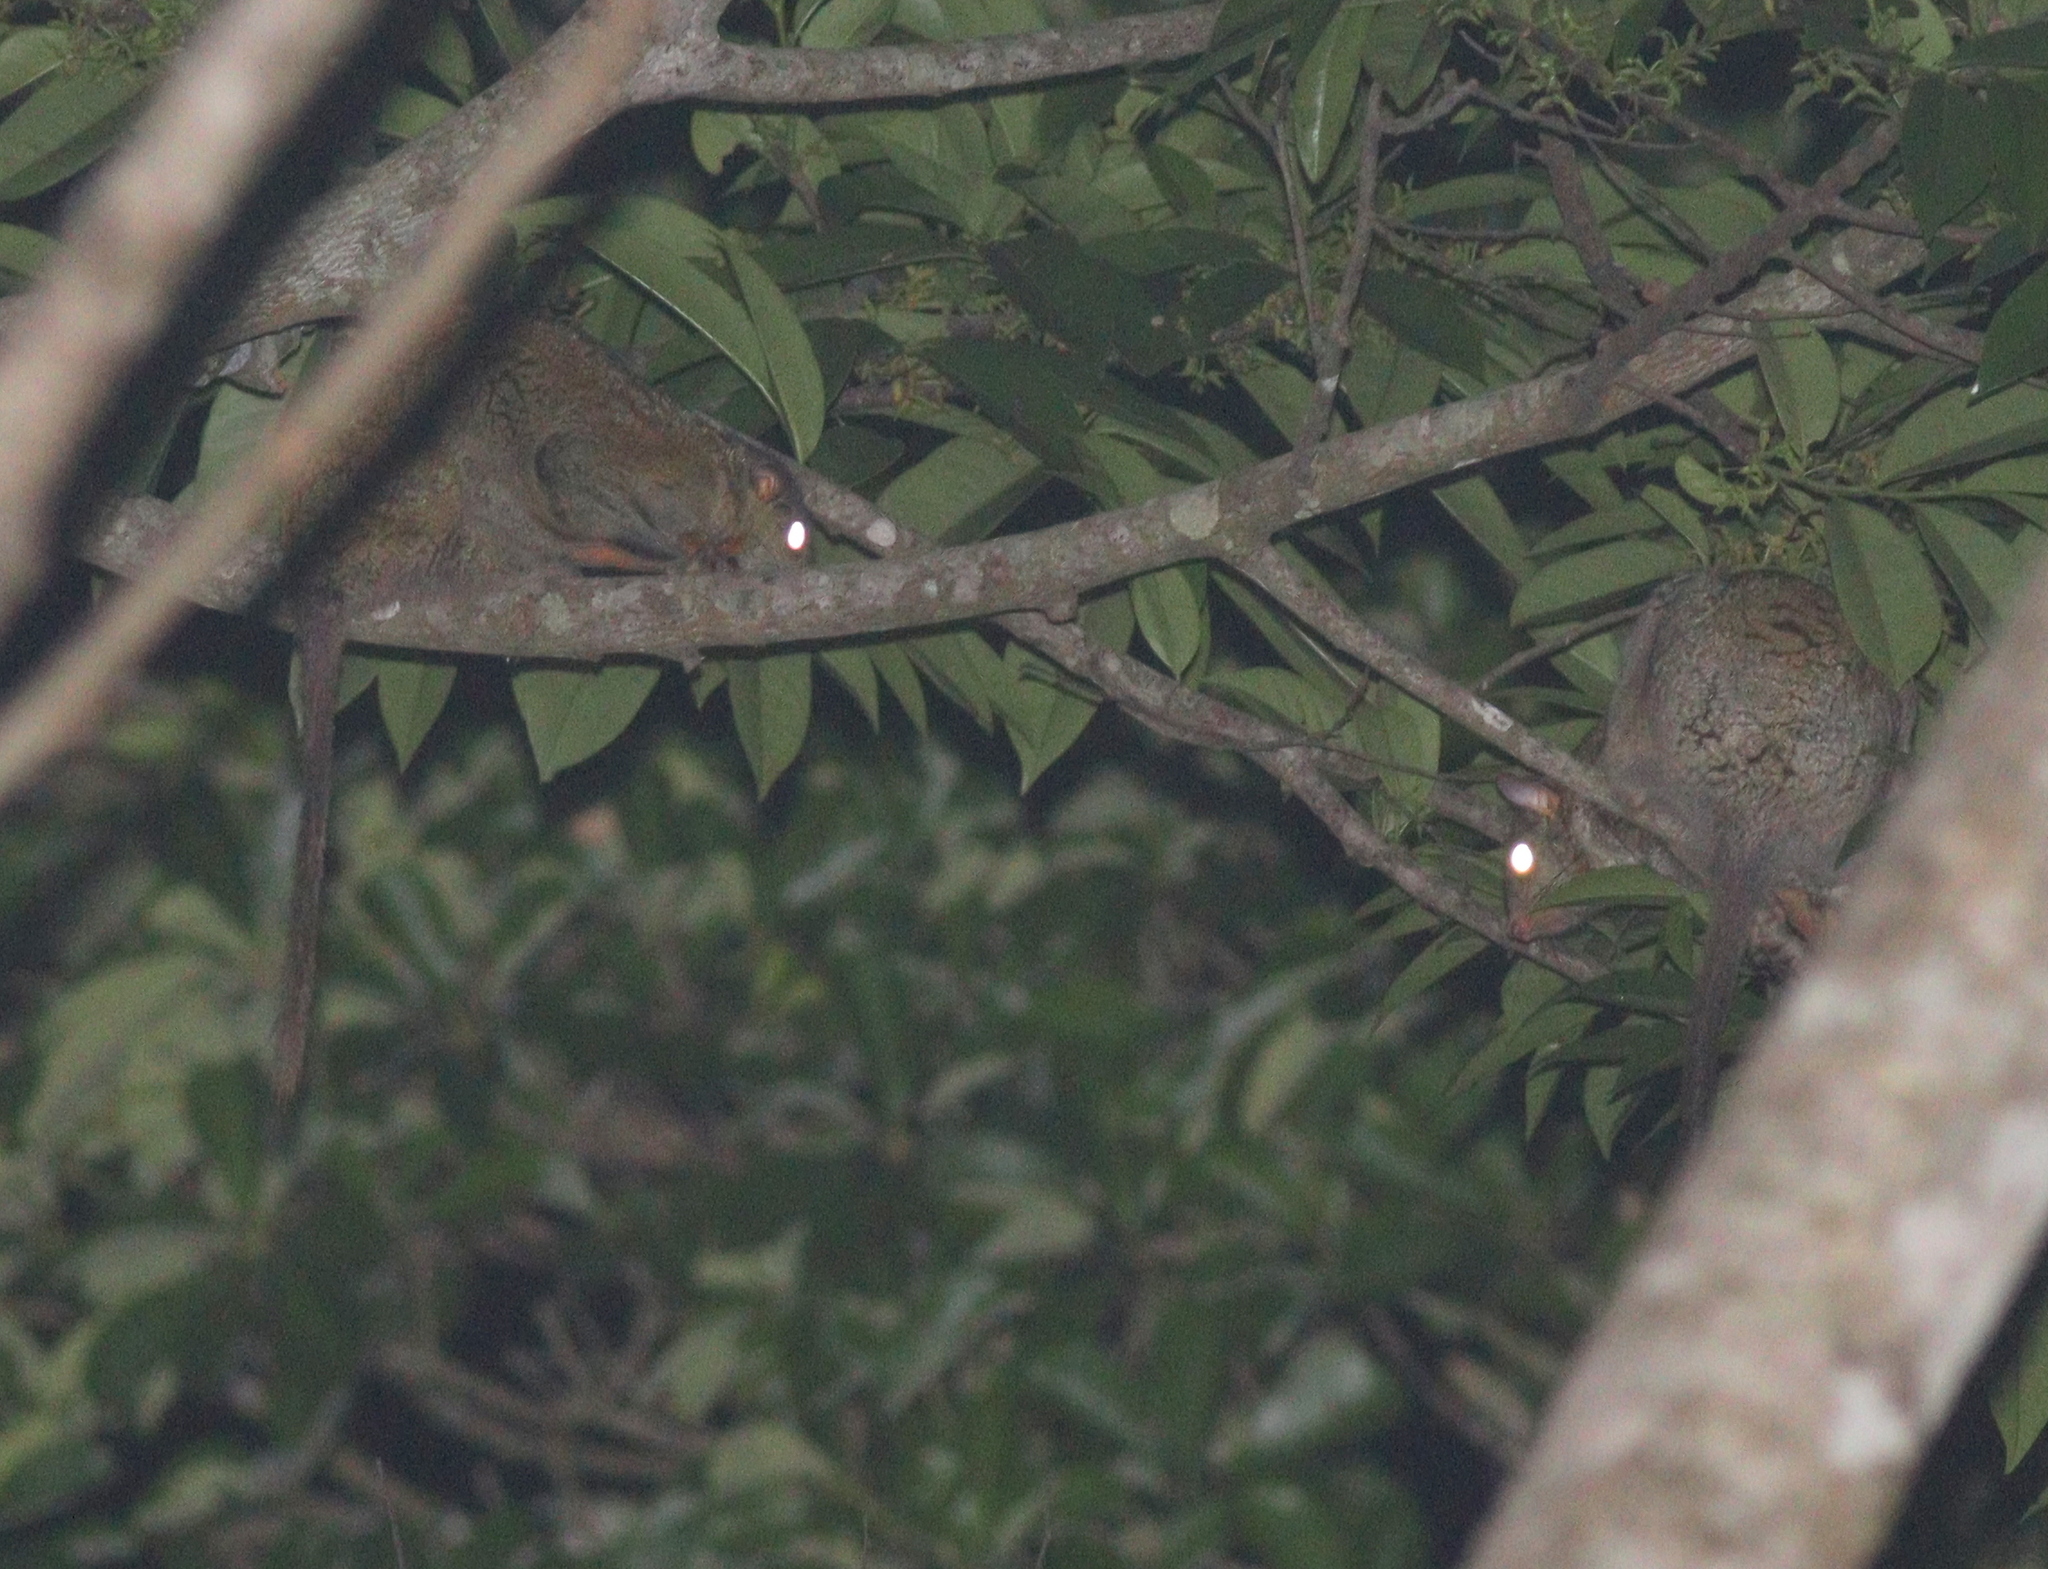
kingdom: Animalia
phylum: Chordata
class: Mammalia
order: Rodentia
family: Anomaluridae
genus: Anomalurus
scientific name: Anomalurus beecrofti
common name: Beecroft's scaly-tailed squirrel
